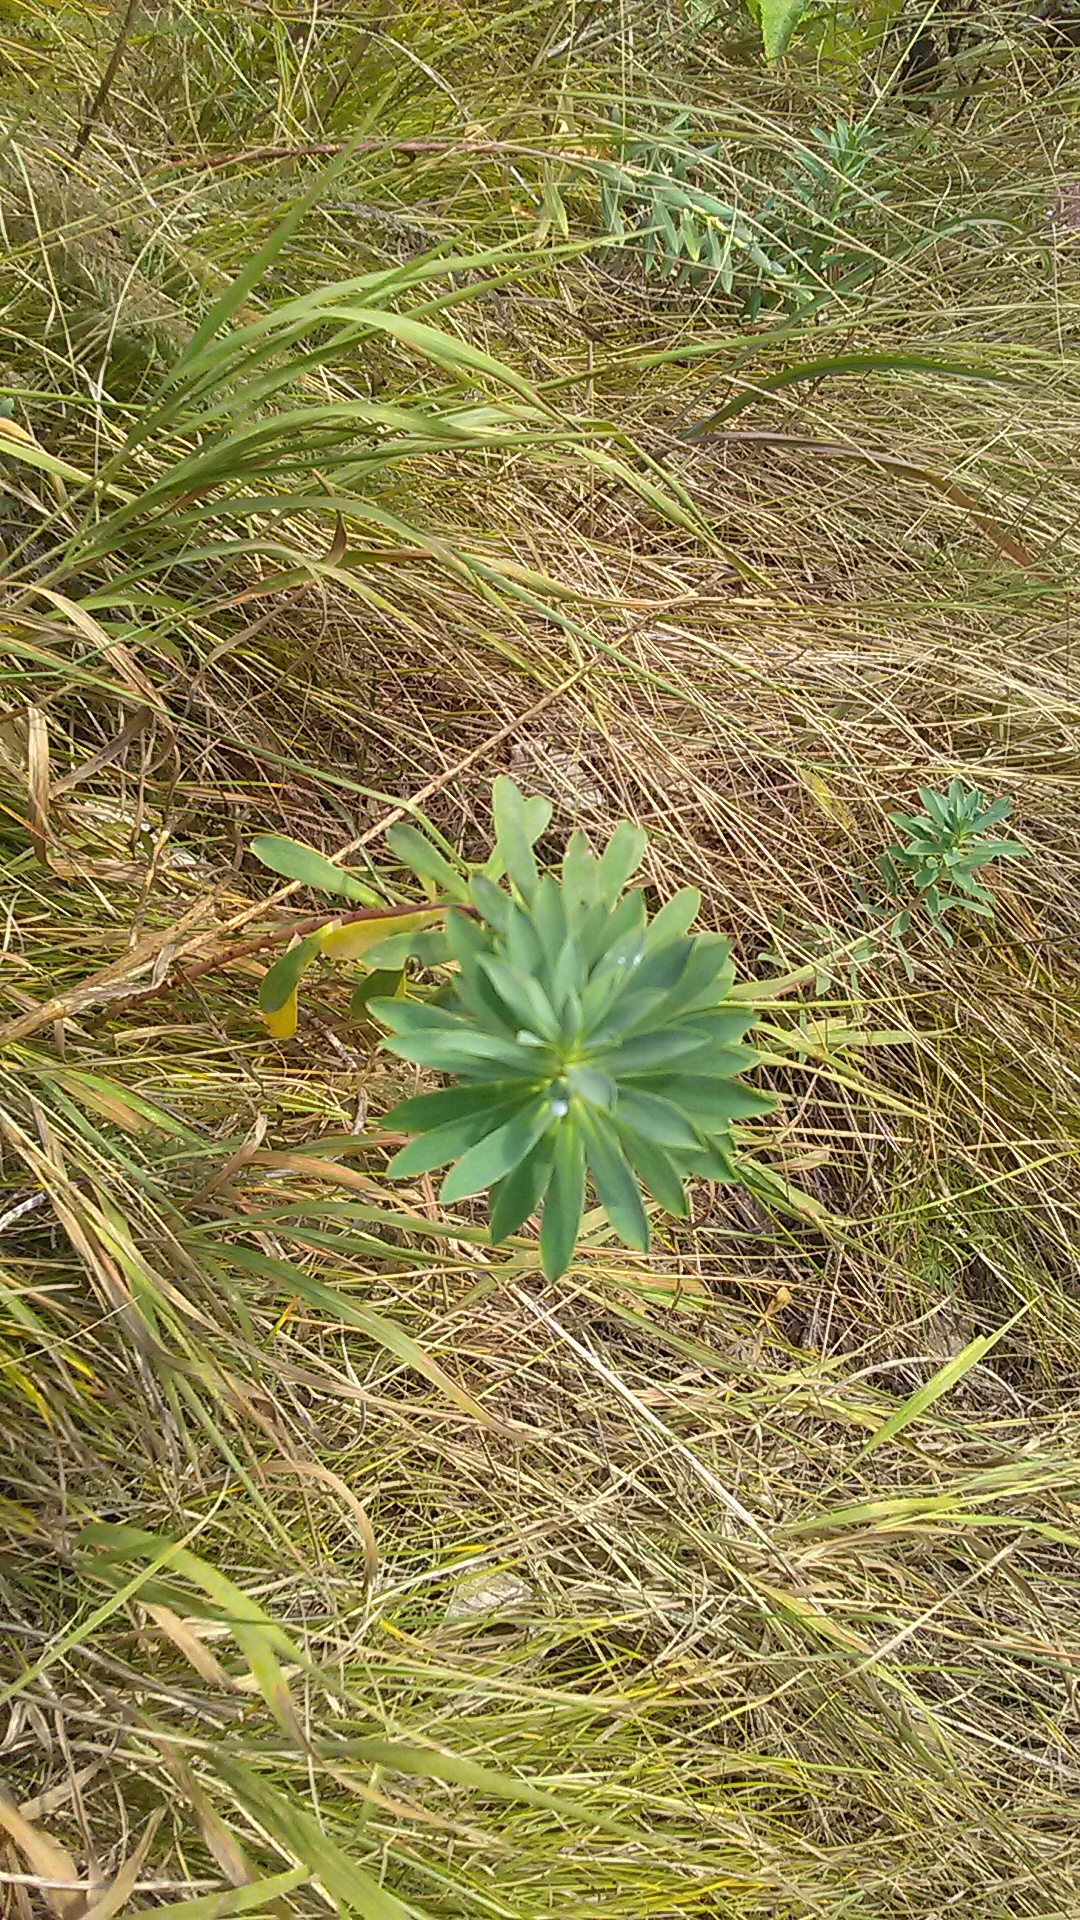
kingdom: Plantae
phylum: Tracheophyta
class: Magnoliopsida
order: Malpighiales
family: Euphorbiaceae
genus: Euphorbia
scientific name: Euphorbia stepposa
